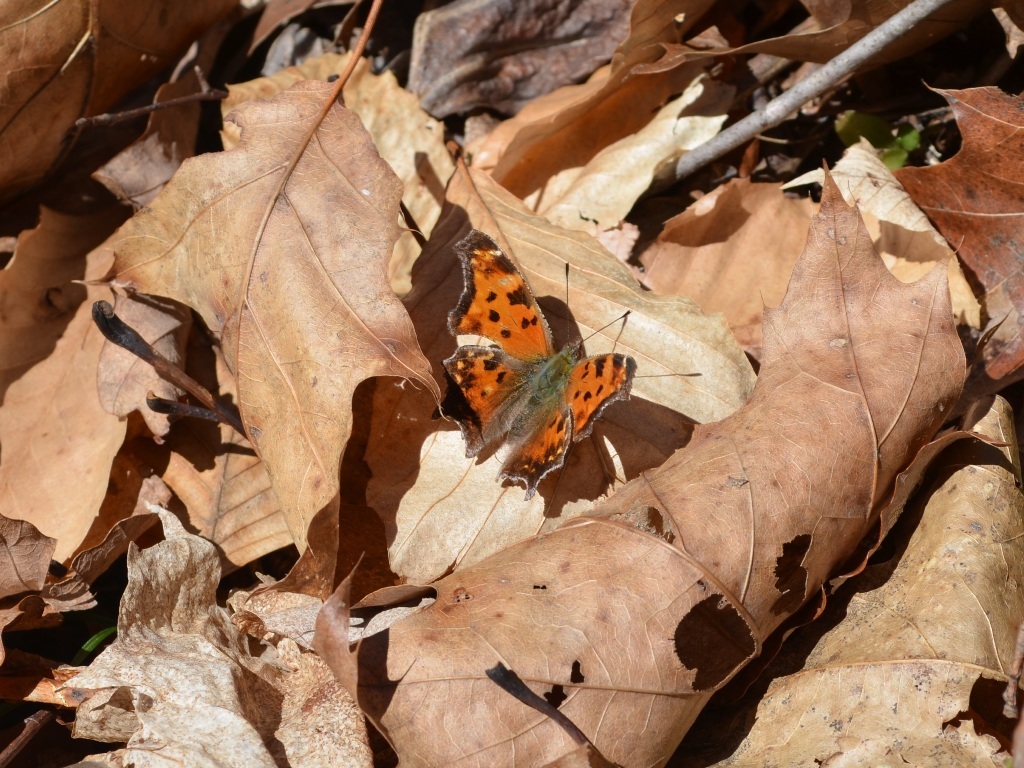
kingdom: Animalia
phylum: Arthropoda
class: Insecta
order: Lepidoptera
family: Nymphalidae
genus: Polygonia
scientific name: Polygonia comma
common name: Eastern comma
